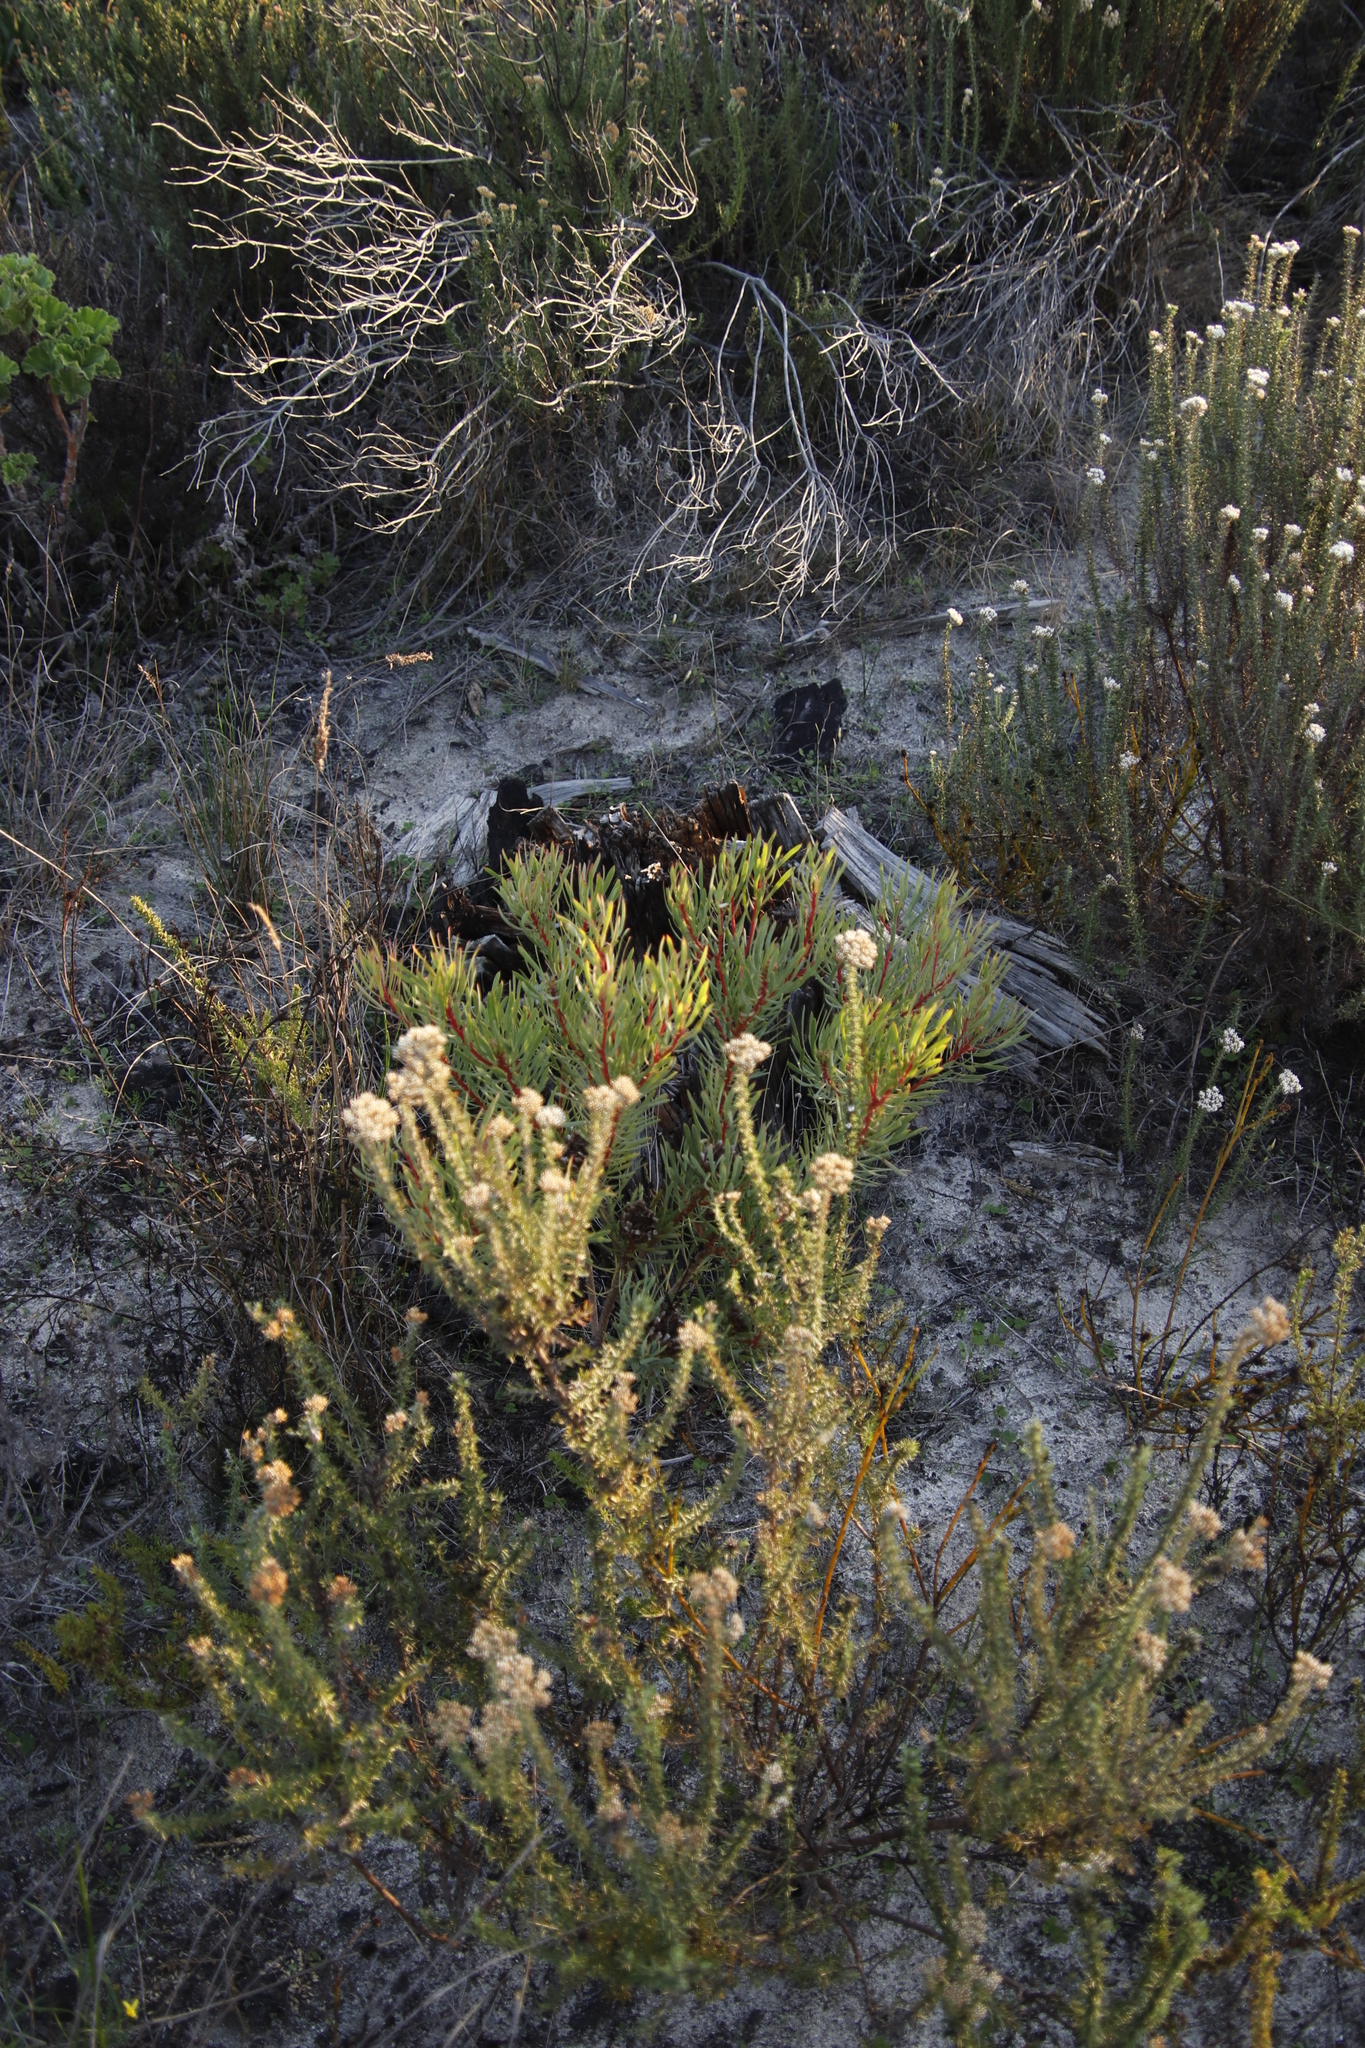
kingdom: Plantae
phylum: Tracheophyta
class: Magnoliopsida
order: Proteales
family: Proteaceae
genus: Protea
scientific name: Protea scolymocephala
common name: Thistle sugarbush
